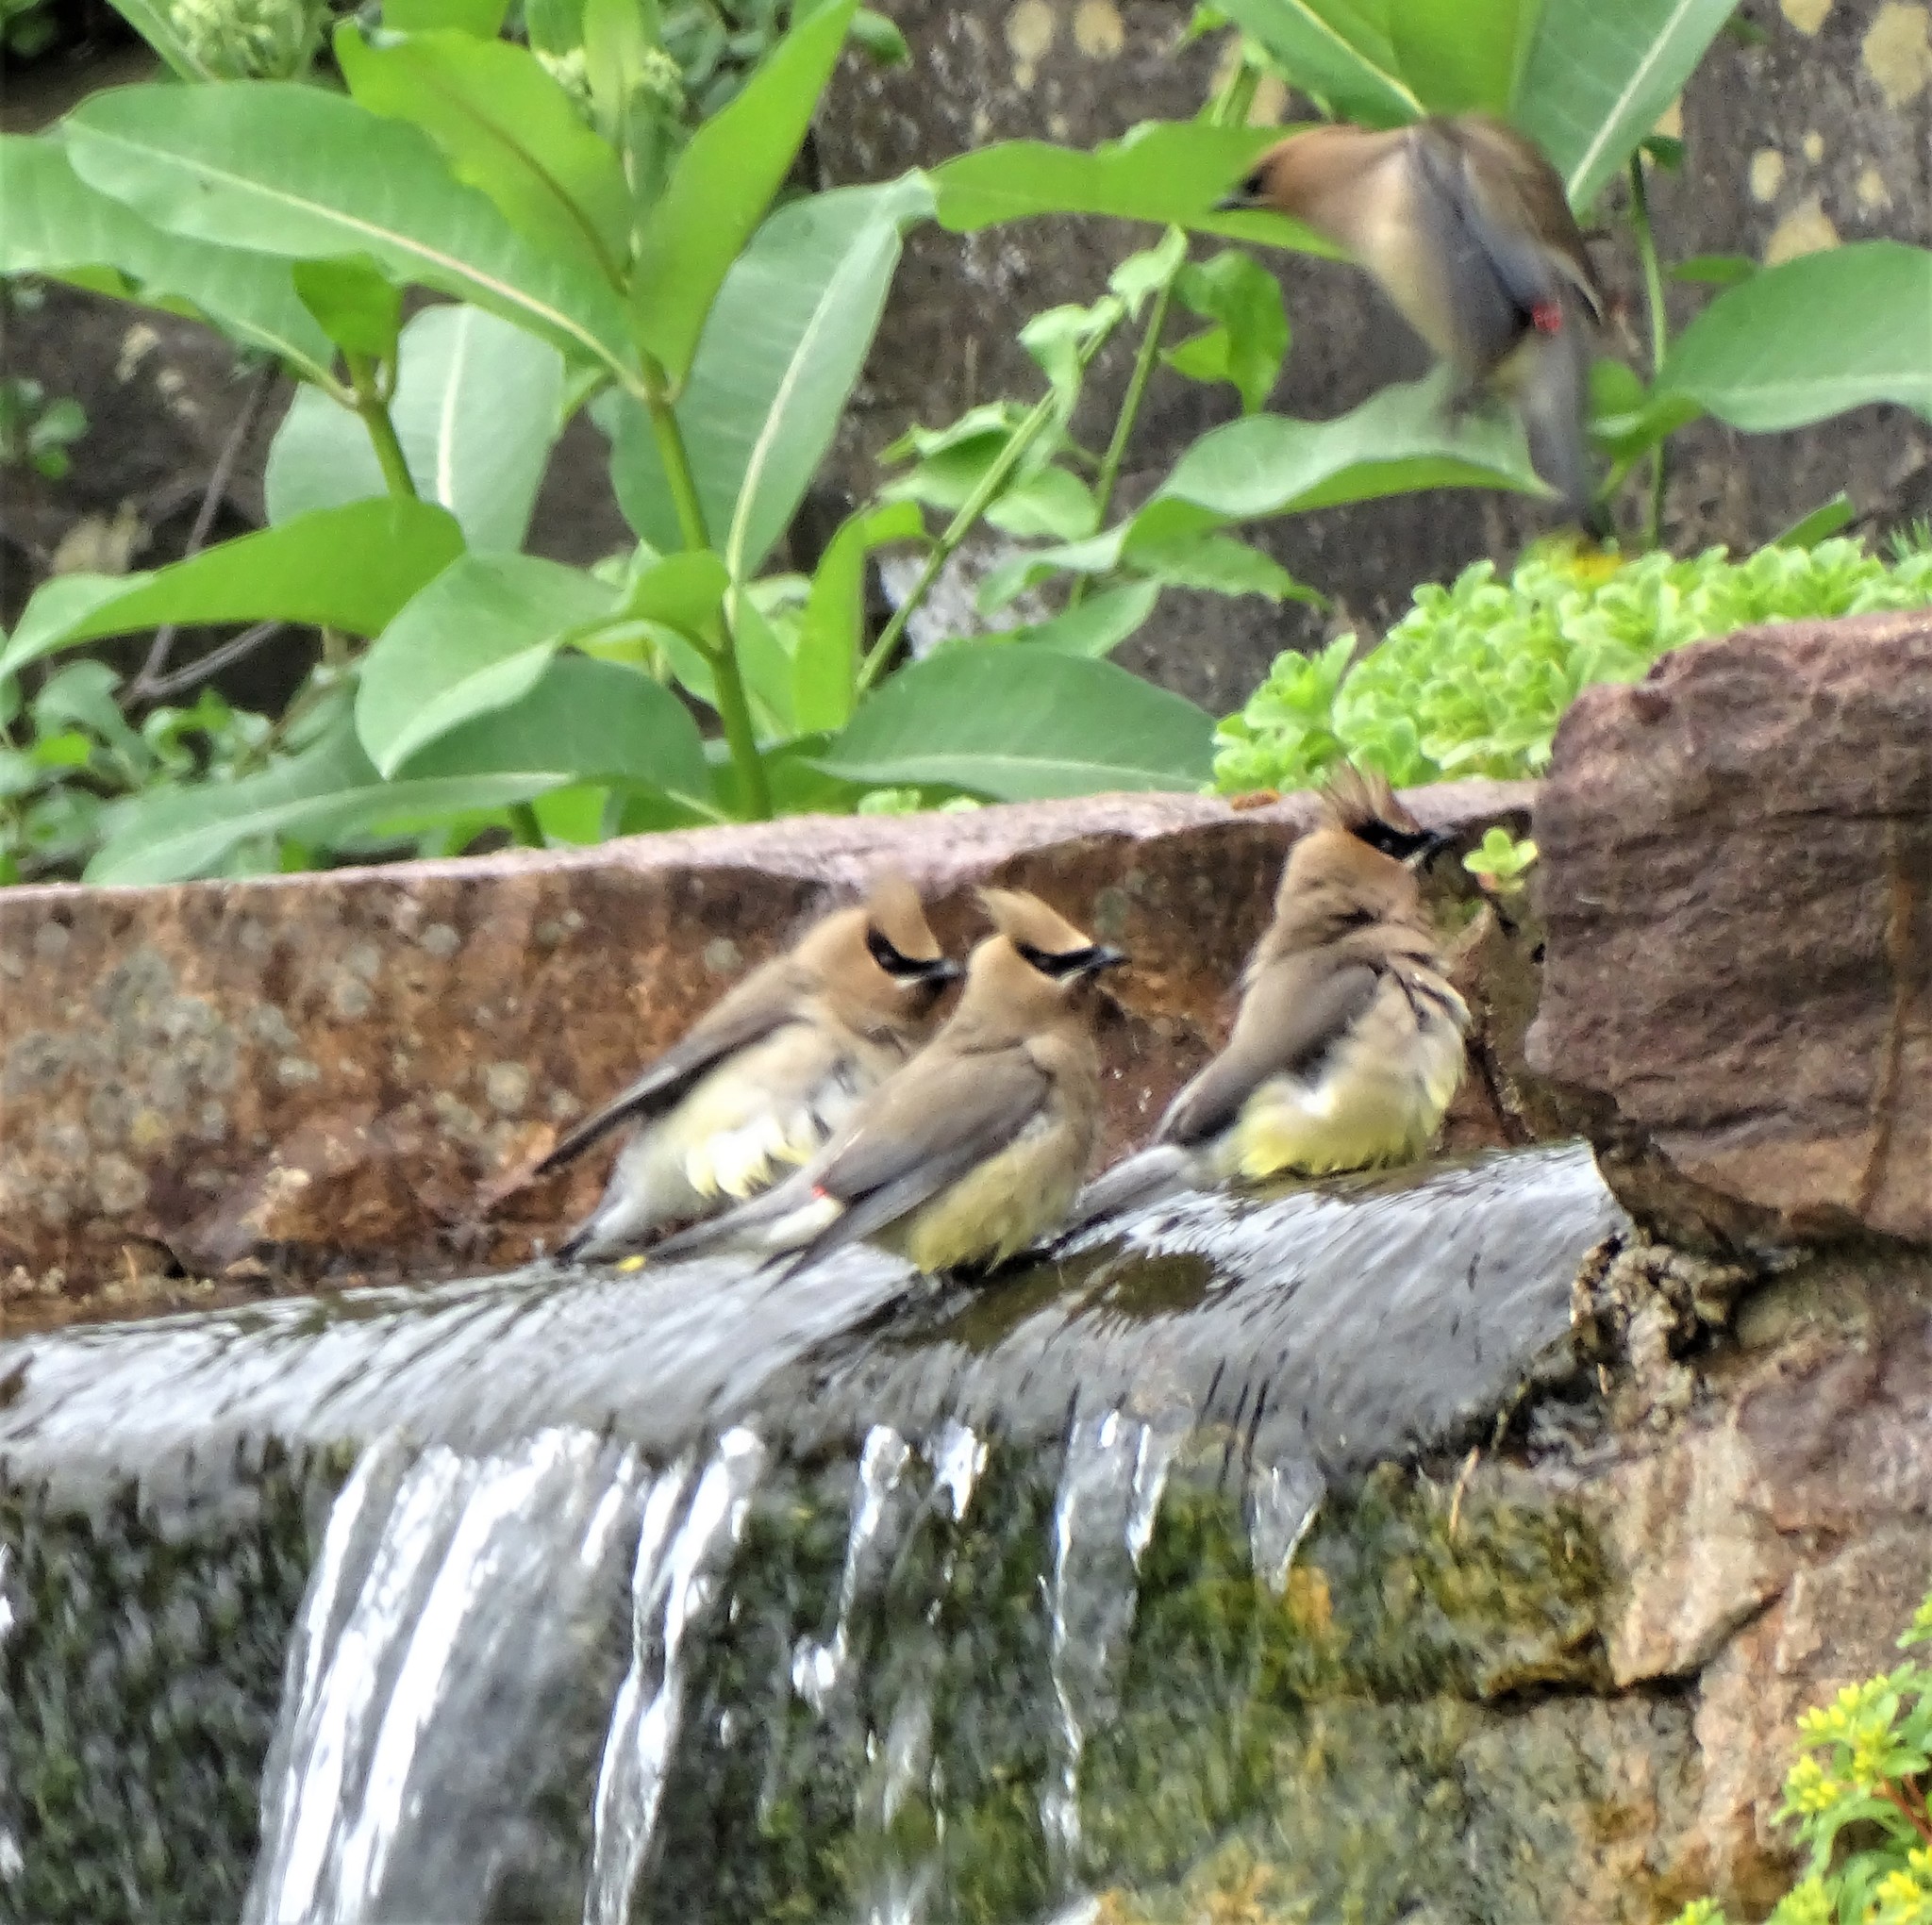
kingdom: Animalia
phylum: Chordata
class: Aves
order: Passeriformes
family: Bombycillidae
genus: Bombycilla
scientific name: Bombycilla cedrorum
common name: Cedar waxwing
